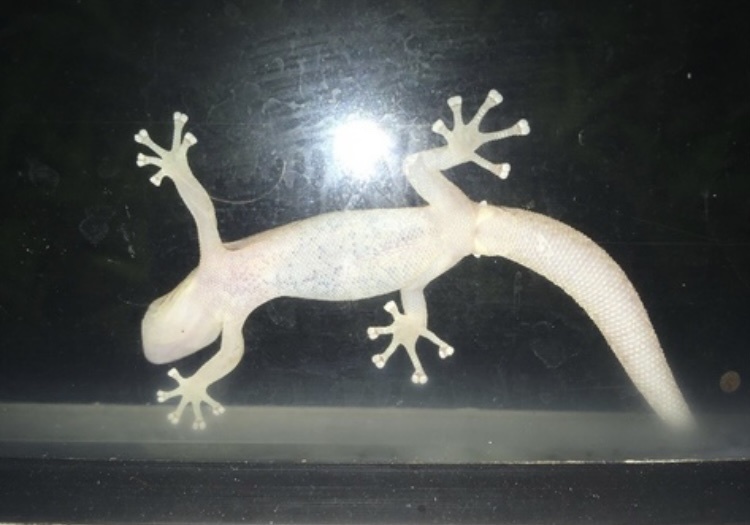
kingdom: Animalia
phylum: Chordata
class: Squamata
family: Gekkonidae
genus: Afrogecko
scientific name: Afrogecko porphyreus
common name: Marbled leaf-toed gecko
